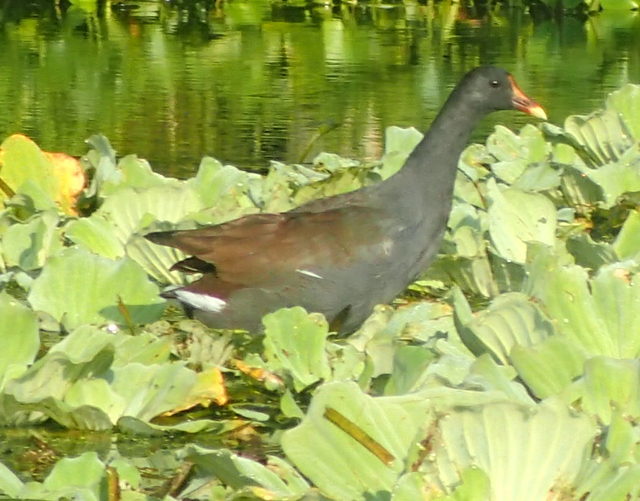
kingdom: Animalia
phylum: Chordata
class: Aves
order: Gruiformes
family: Rallidae
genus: Gallinula
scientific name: Gallinula chloropus
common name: Common moorhen
